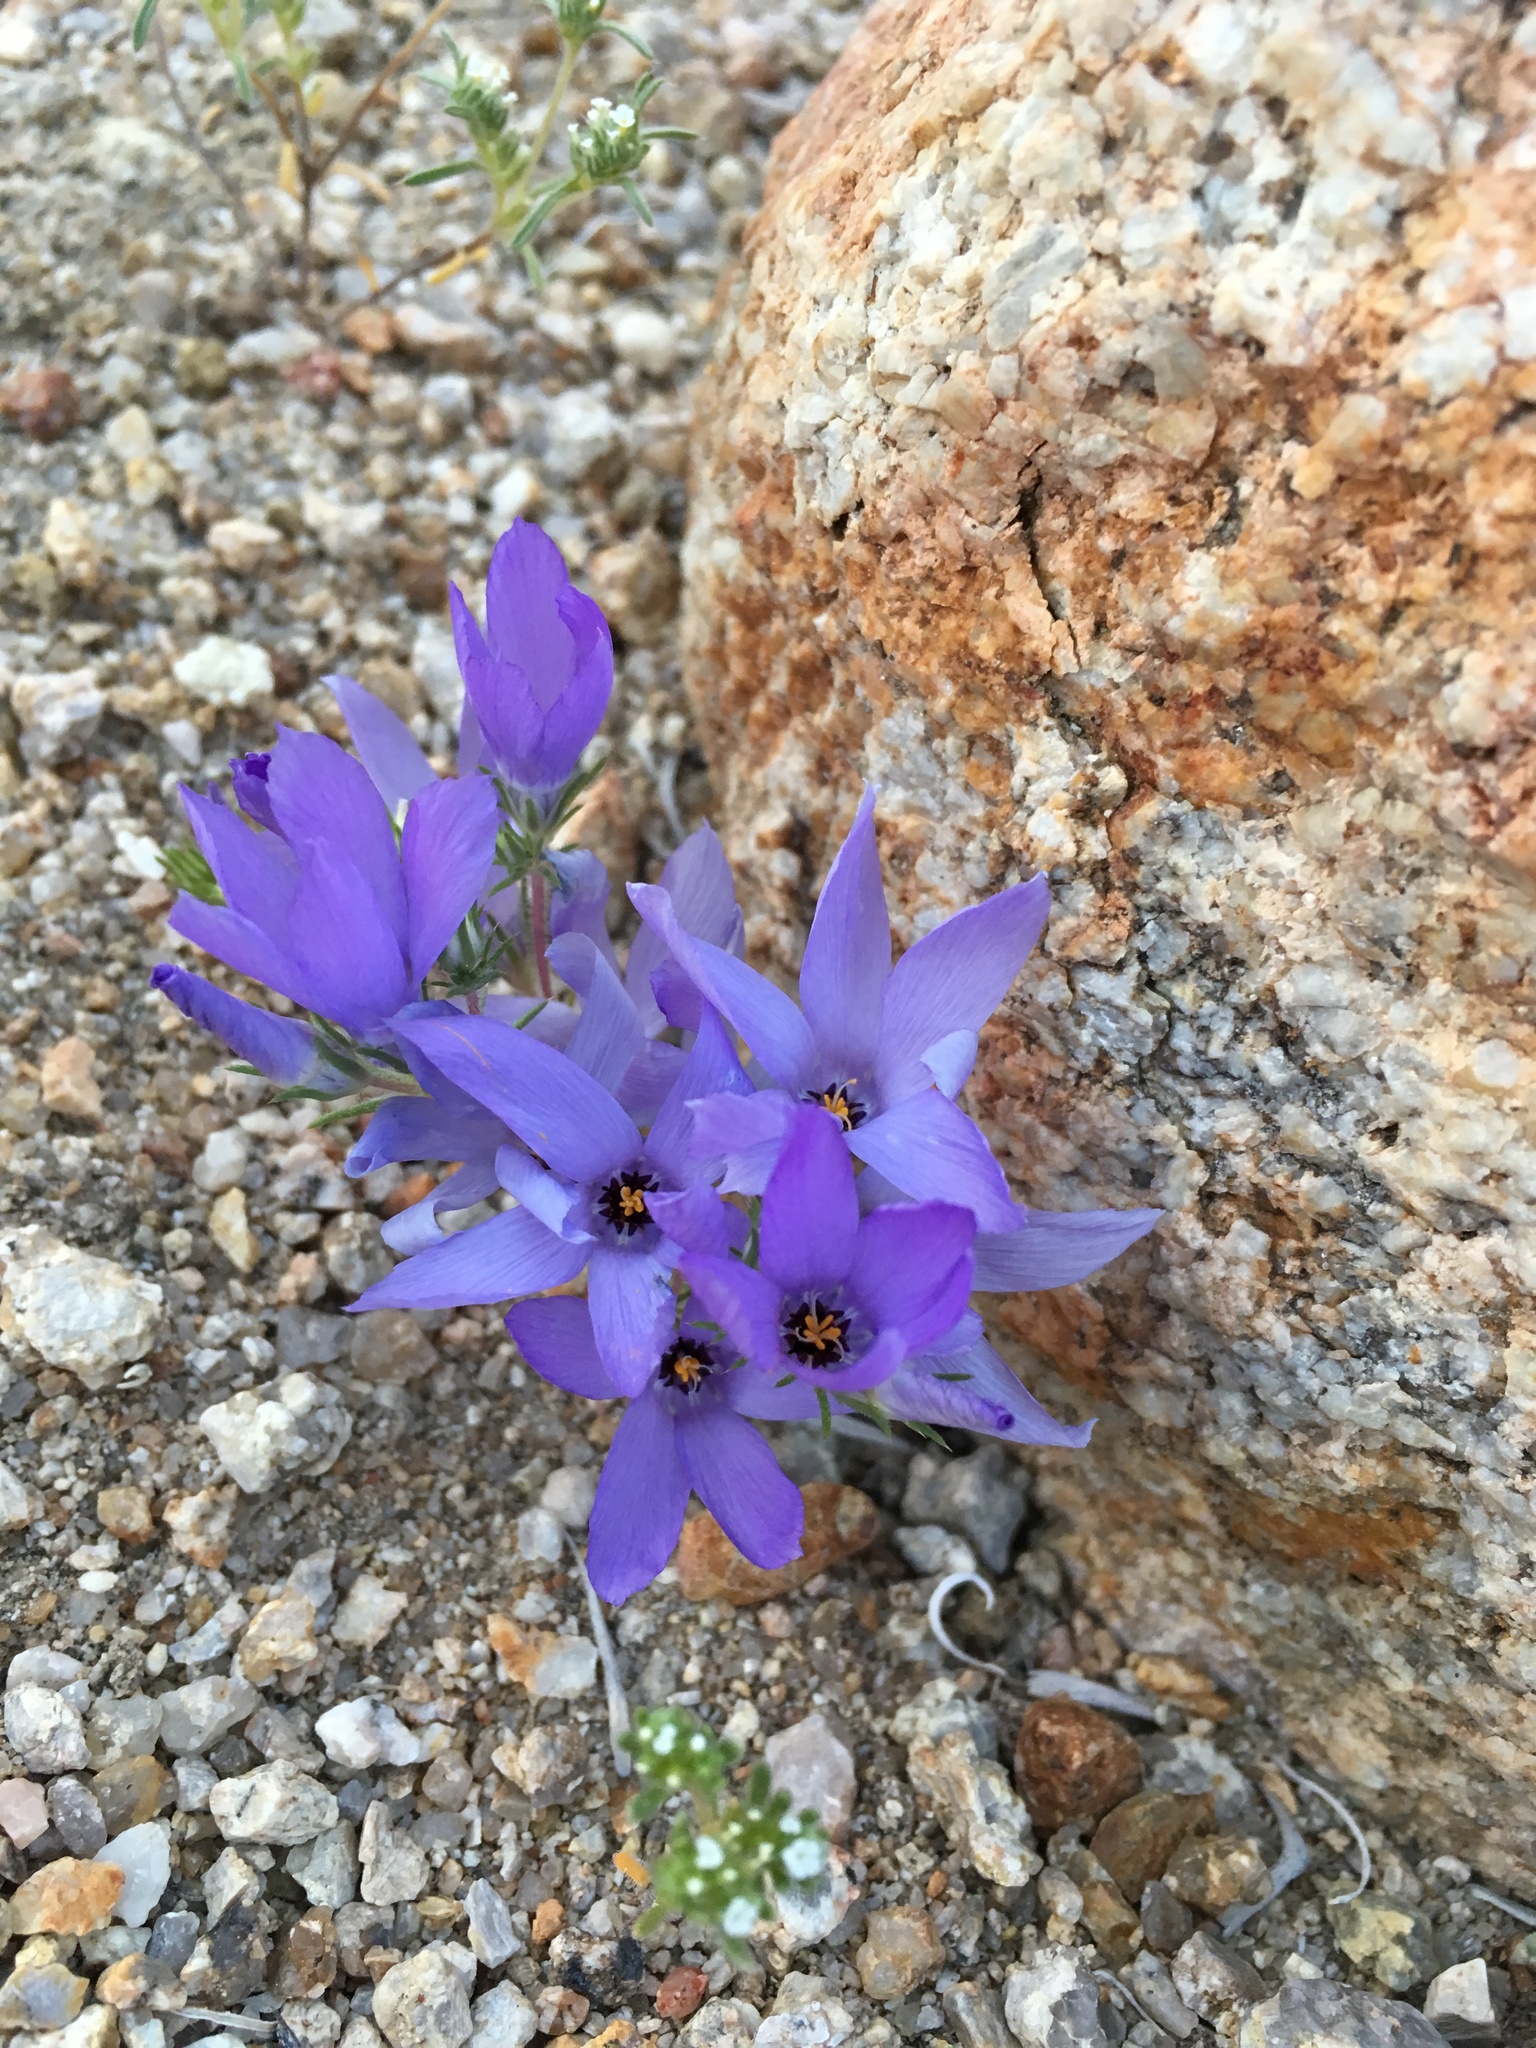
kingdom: Plantae
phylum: Tracheophyta
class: Magnoliopsida
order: Ericales
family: Polemoniaceae
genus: Linanthus
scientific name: Linanthus parryae
